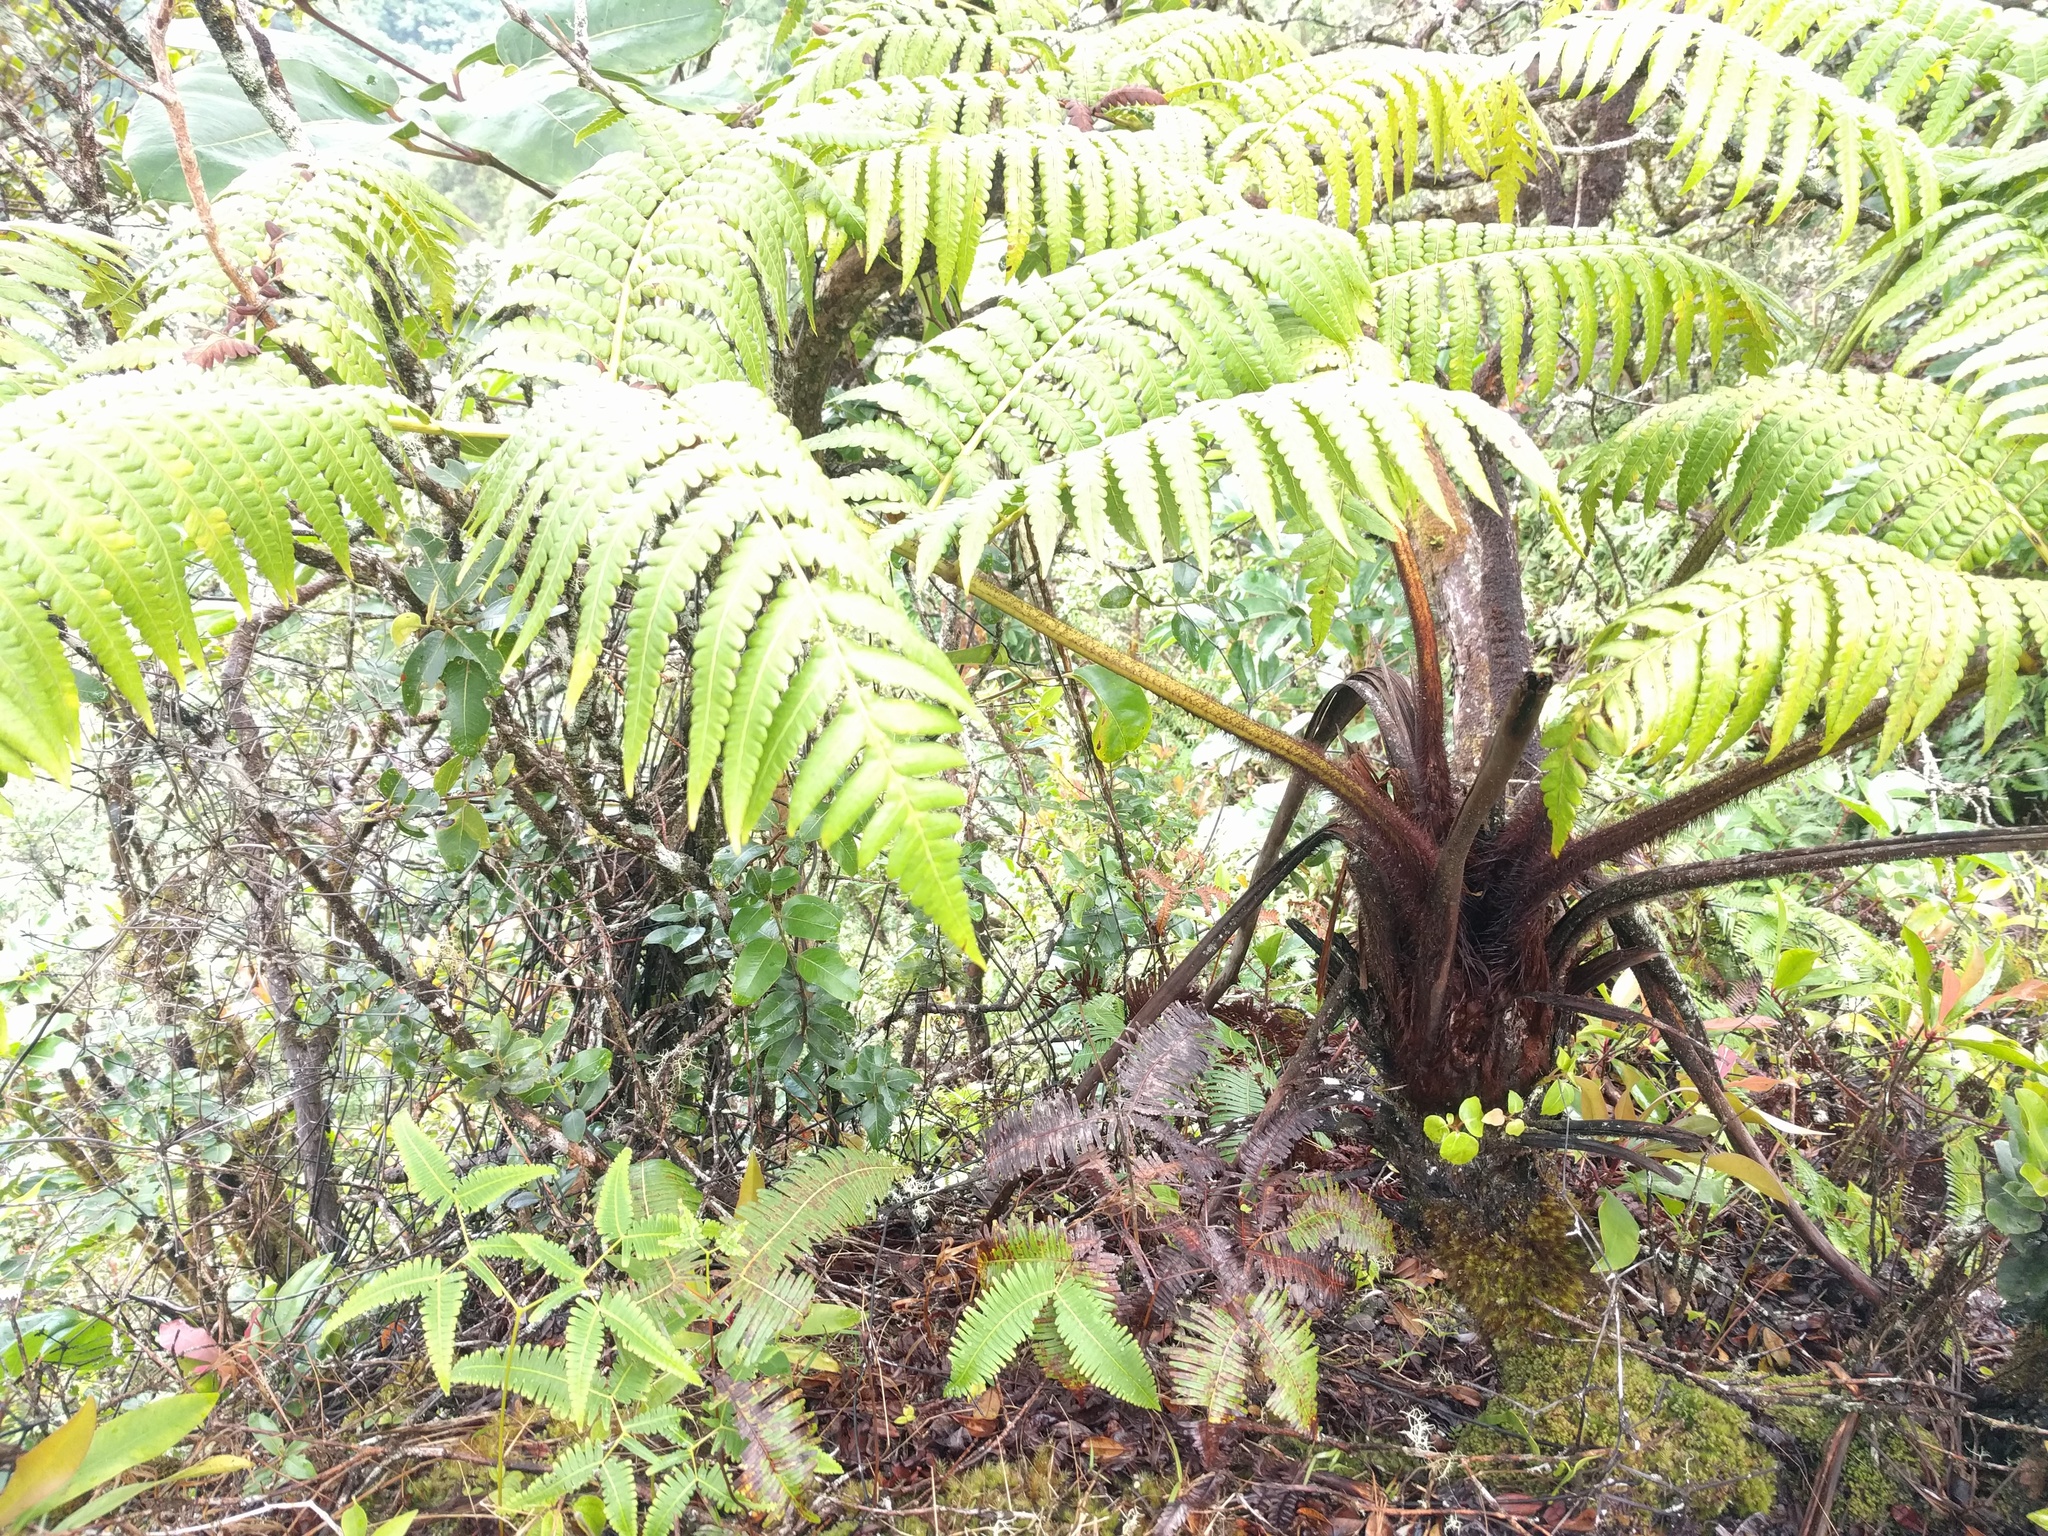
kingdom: Plantae
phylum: Tracheophyta
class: Polypodiopsida
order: Cyatheales
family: Cibotiaceae
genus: Cibotium
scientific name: Cibotium menziesii
